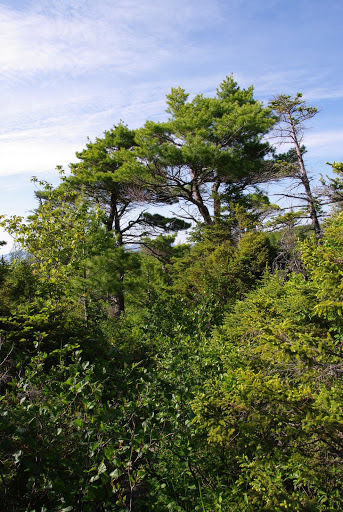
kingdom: Plantae
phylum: Tracheophyta
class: Pinopsida
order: Pinales
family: Pinaceae
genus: Pinus
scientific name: Pinus strobus
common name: Weymouth pine
